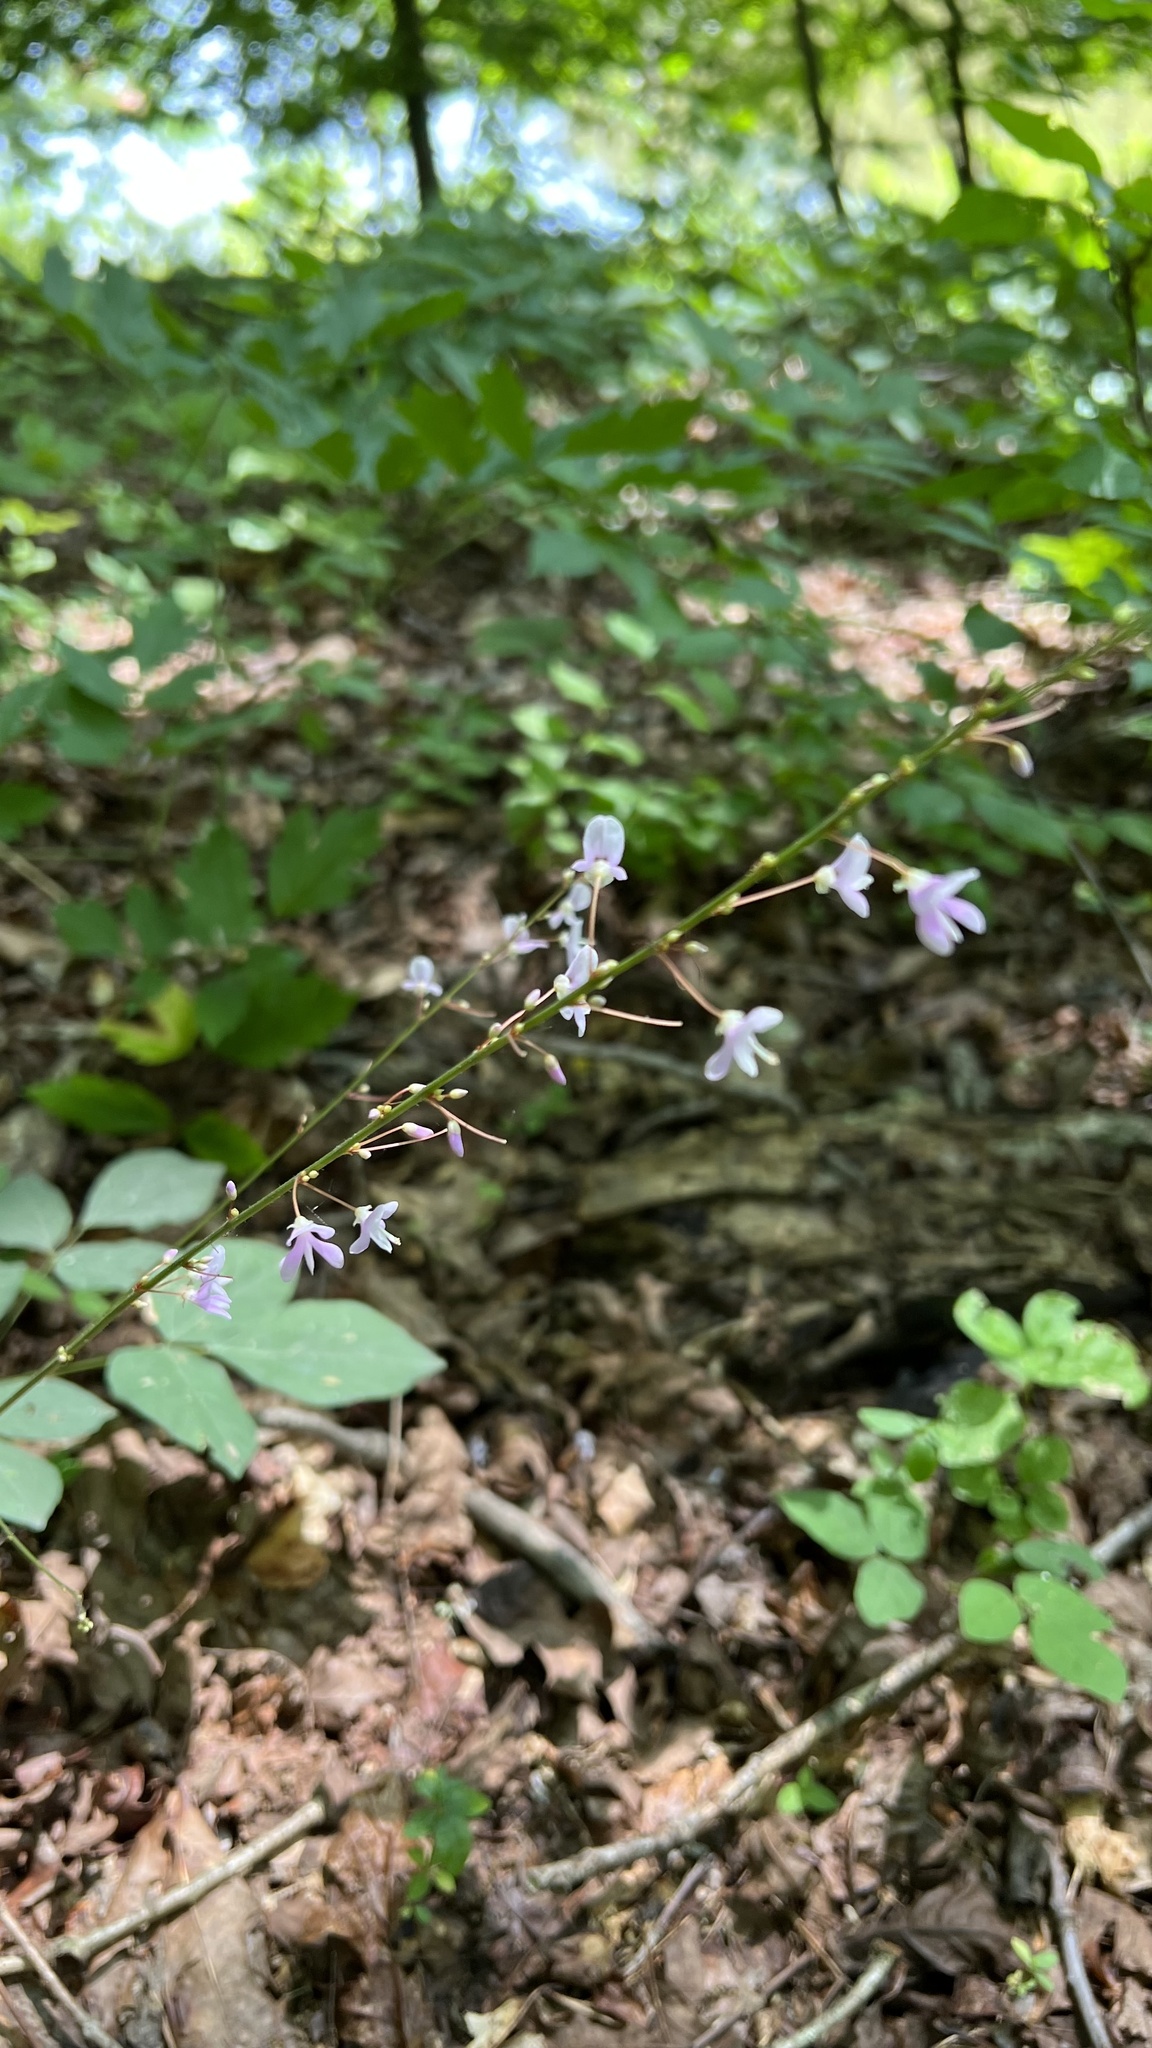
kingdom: Plantae
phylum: Tracheophyta
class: Magnoliopsida
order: Fabales
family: Fabaceae
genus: Hylodesmum
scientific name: Hylodesmum nudiflorum
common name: Bare-stemmed tick-trefoil
